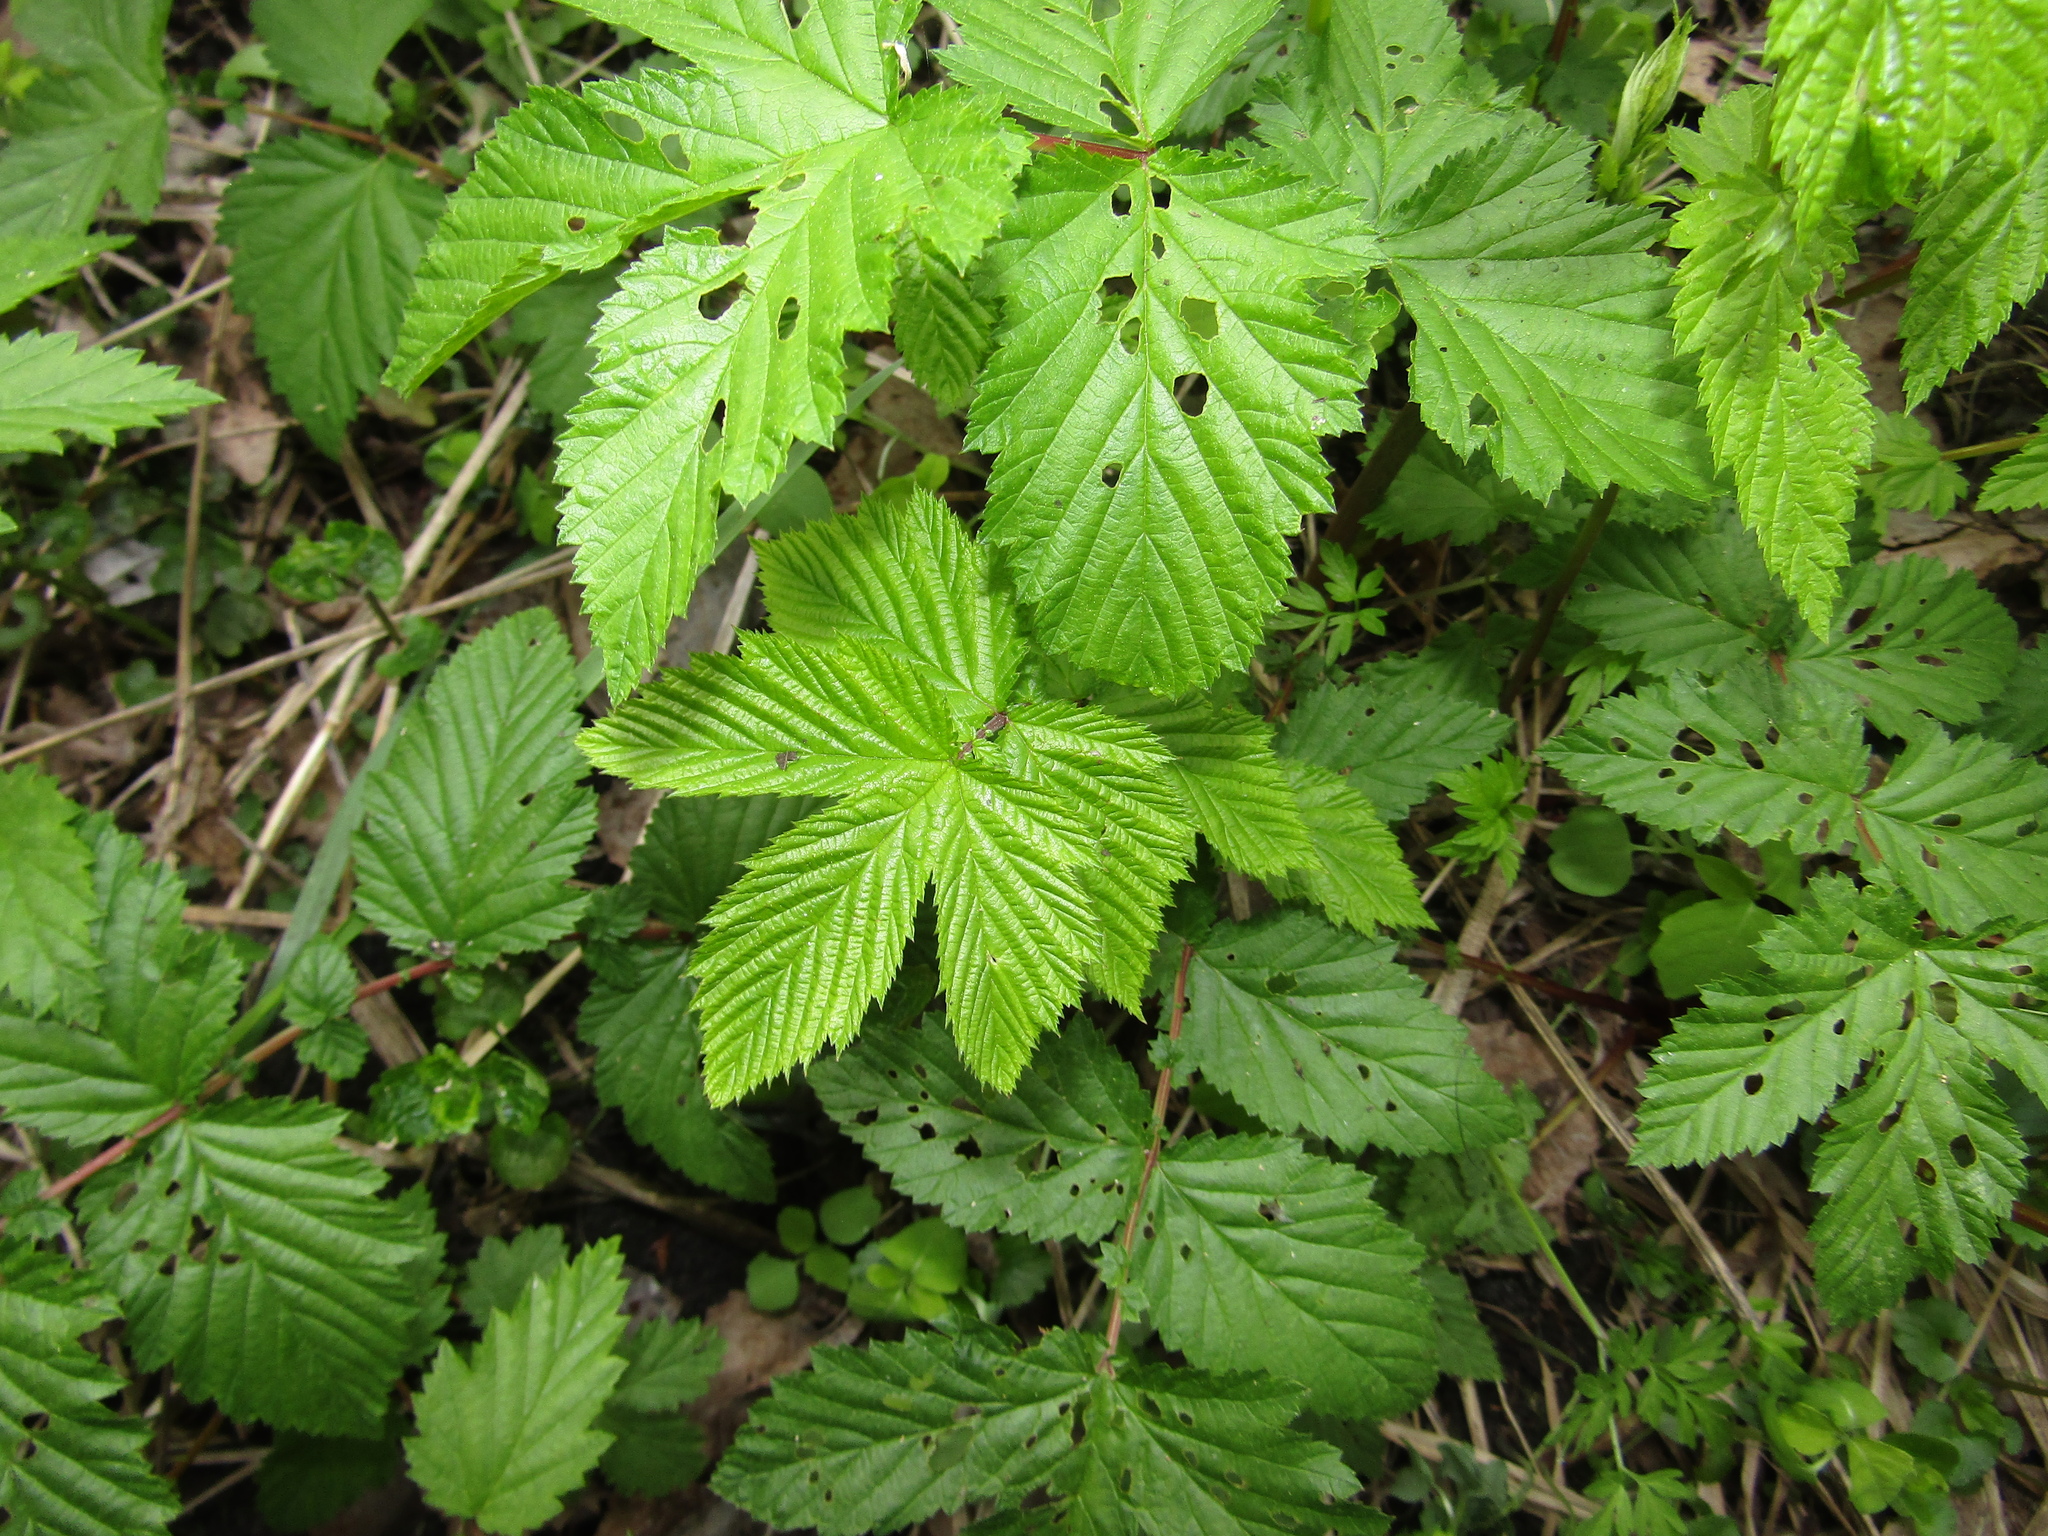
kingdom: Plantae
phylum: Tracheophyta
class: Magnoliopsida
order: Rosales
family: Rosaceae
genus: Filipendula
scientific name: Filipendula ulmaria
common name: Meadowsweet
